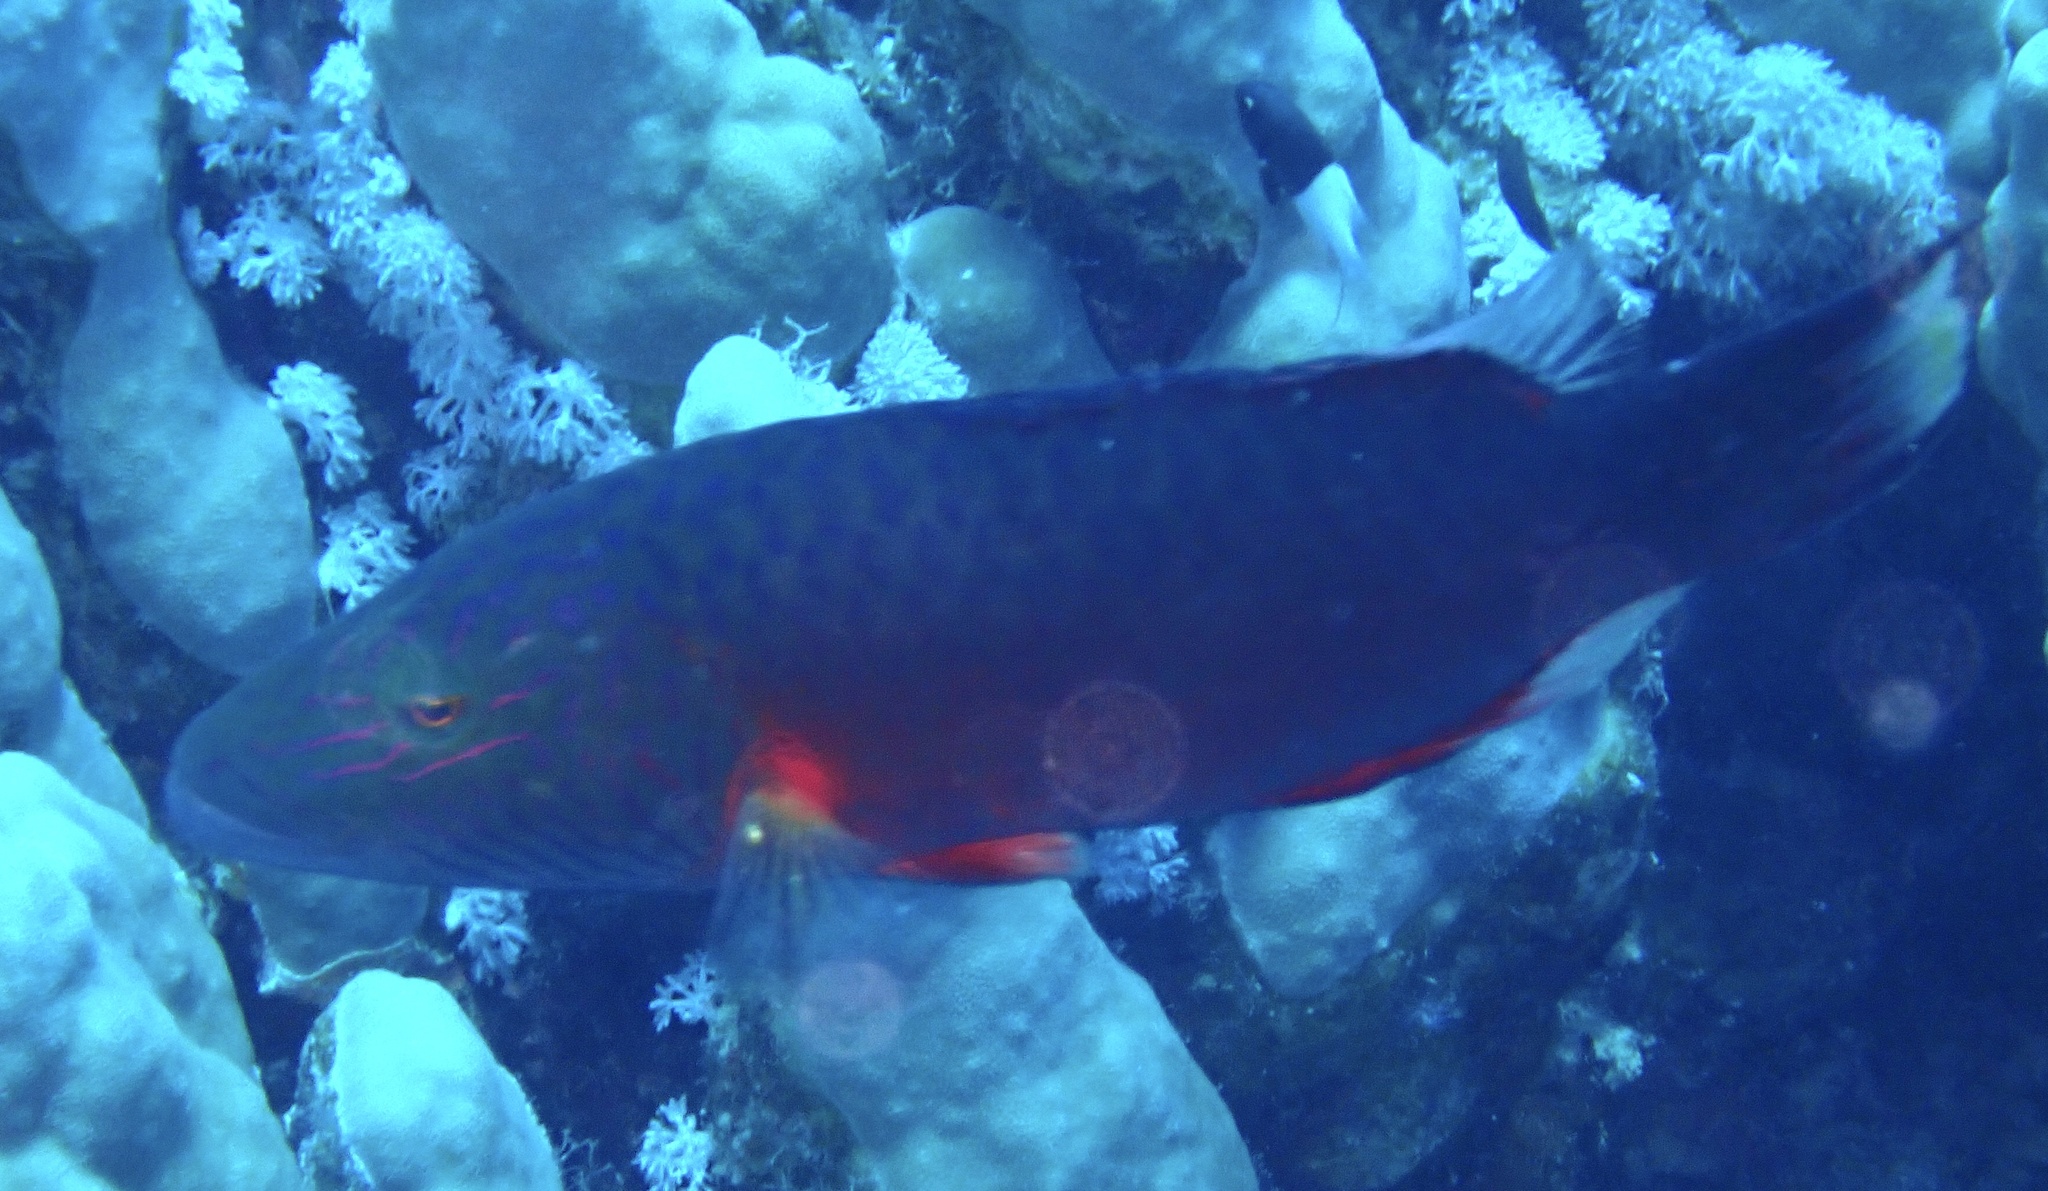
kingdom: Animalia
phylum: Chordata
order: Perciformes
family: Labridae
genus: Oxycheilinus
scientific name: Oxycheilinus digramma
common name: Bandcheek wrasse
